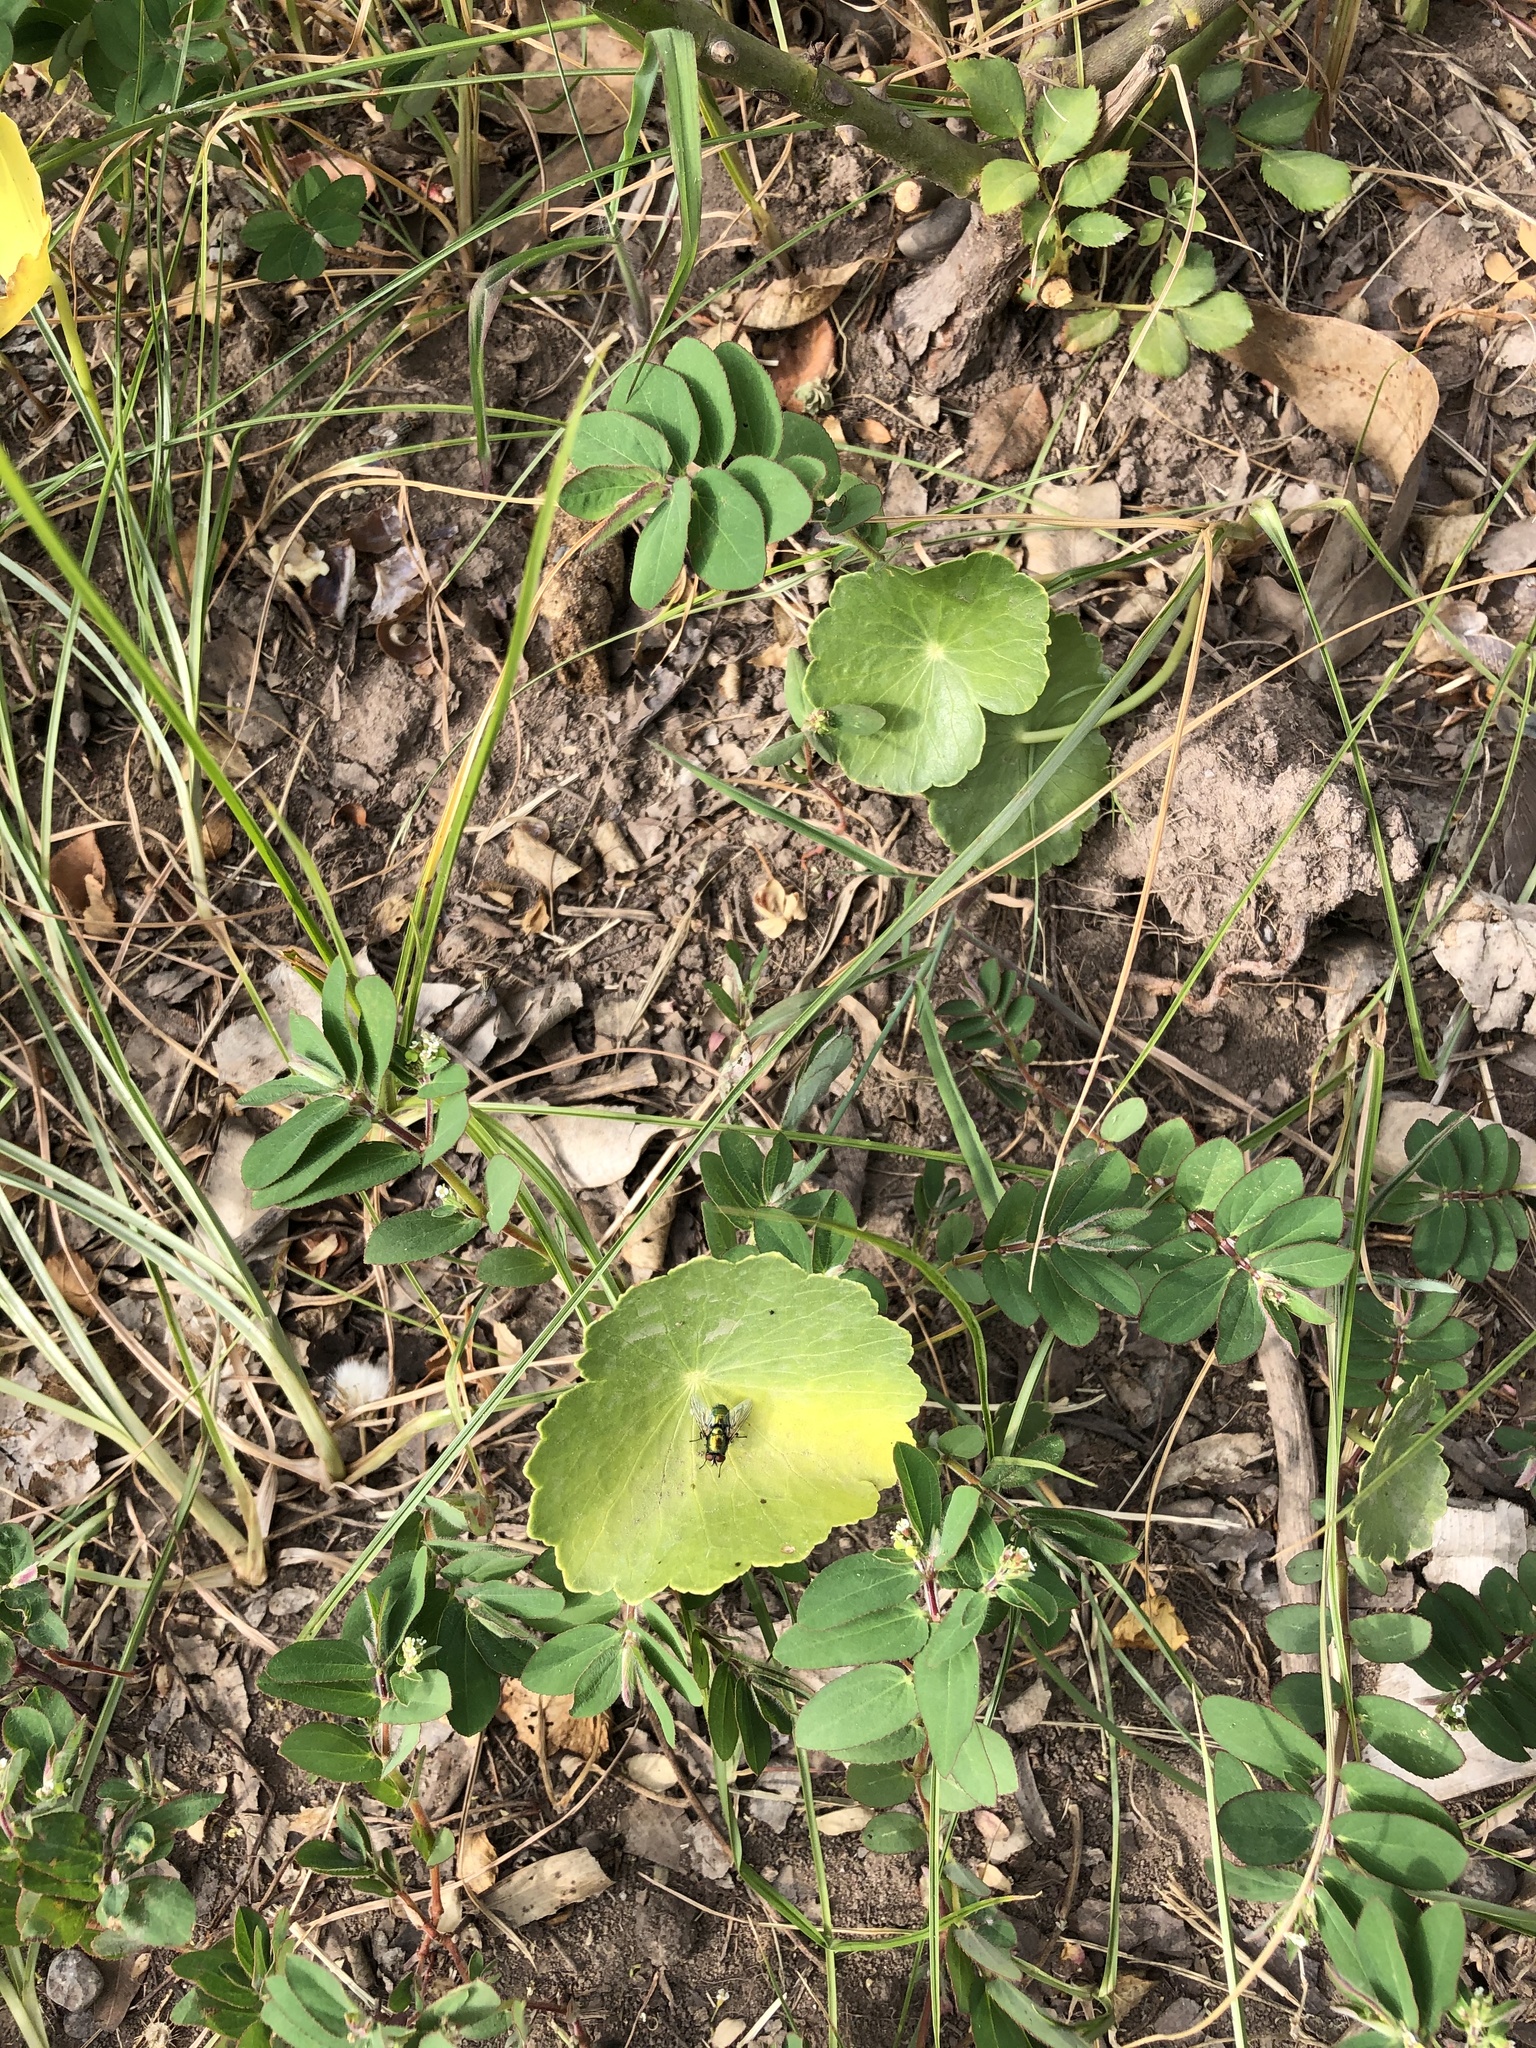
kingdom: Plantae
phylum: Tracheophyta
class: Magnoliopsida
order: Apiales
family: Araliaceae
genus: Hydrocotyle
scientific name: Hydrocotyle bonariensis
